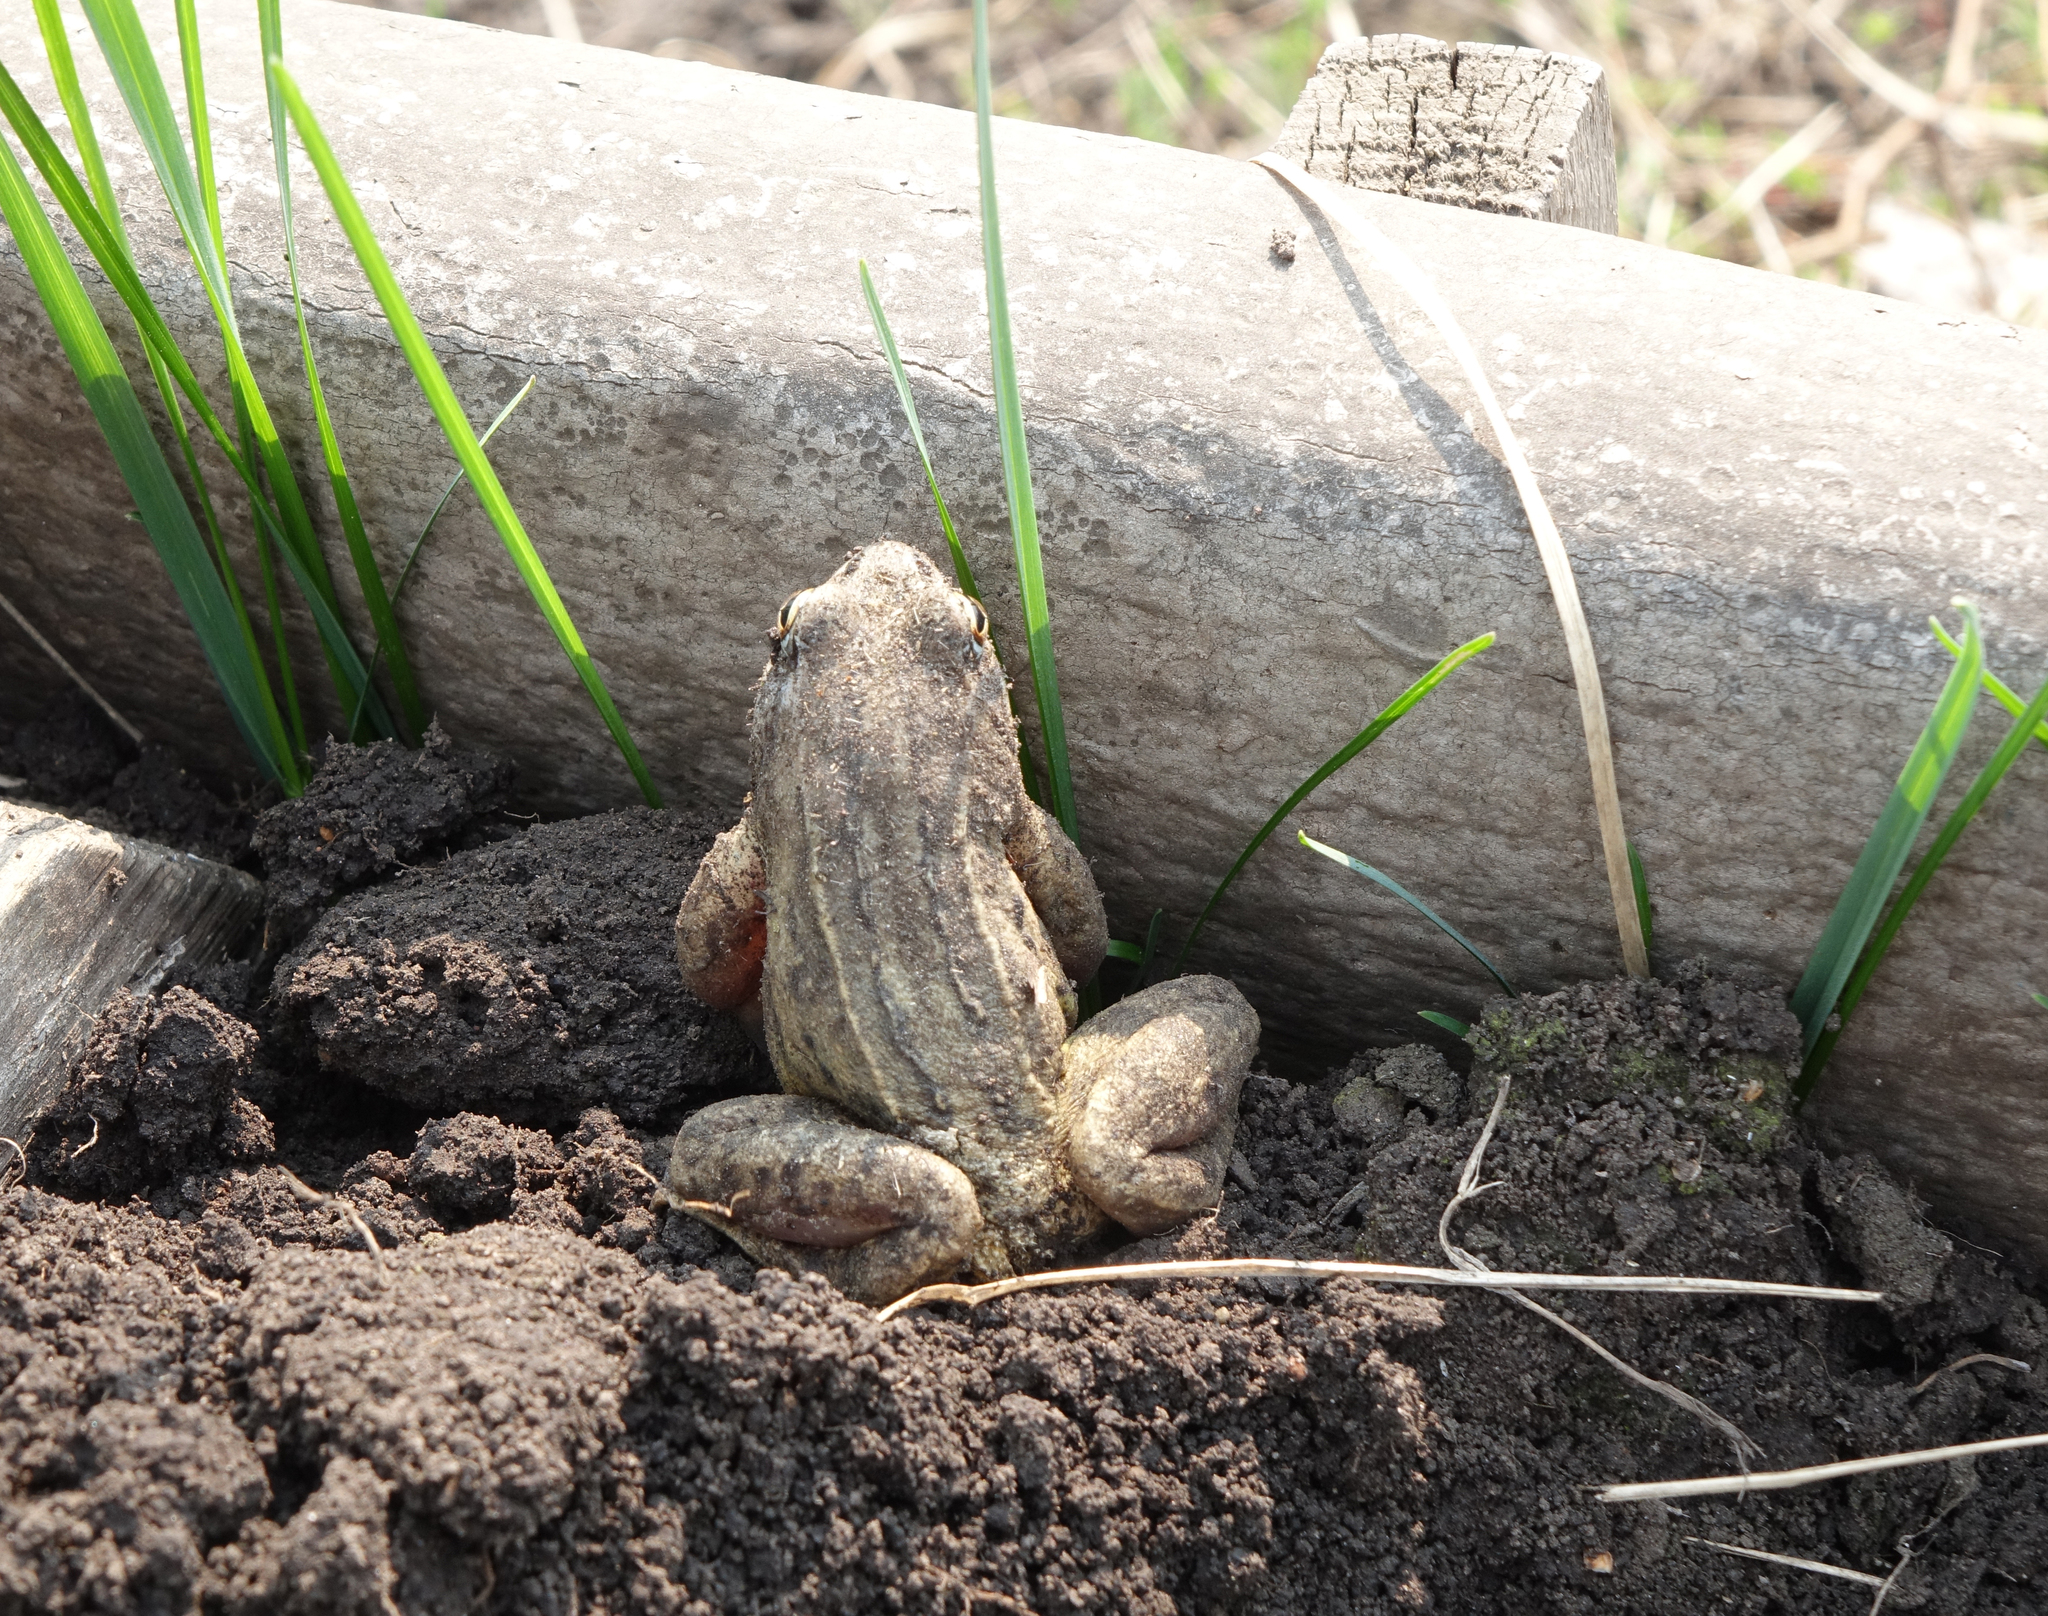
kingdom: Animalia
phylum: Chordata
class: Amphibia
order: Anura
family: Ranidae
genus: Rana
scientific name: Rana arvalis
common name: Moor frog
